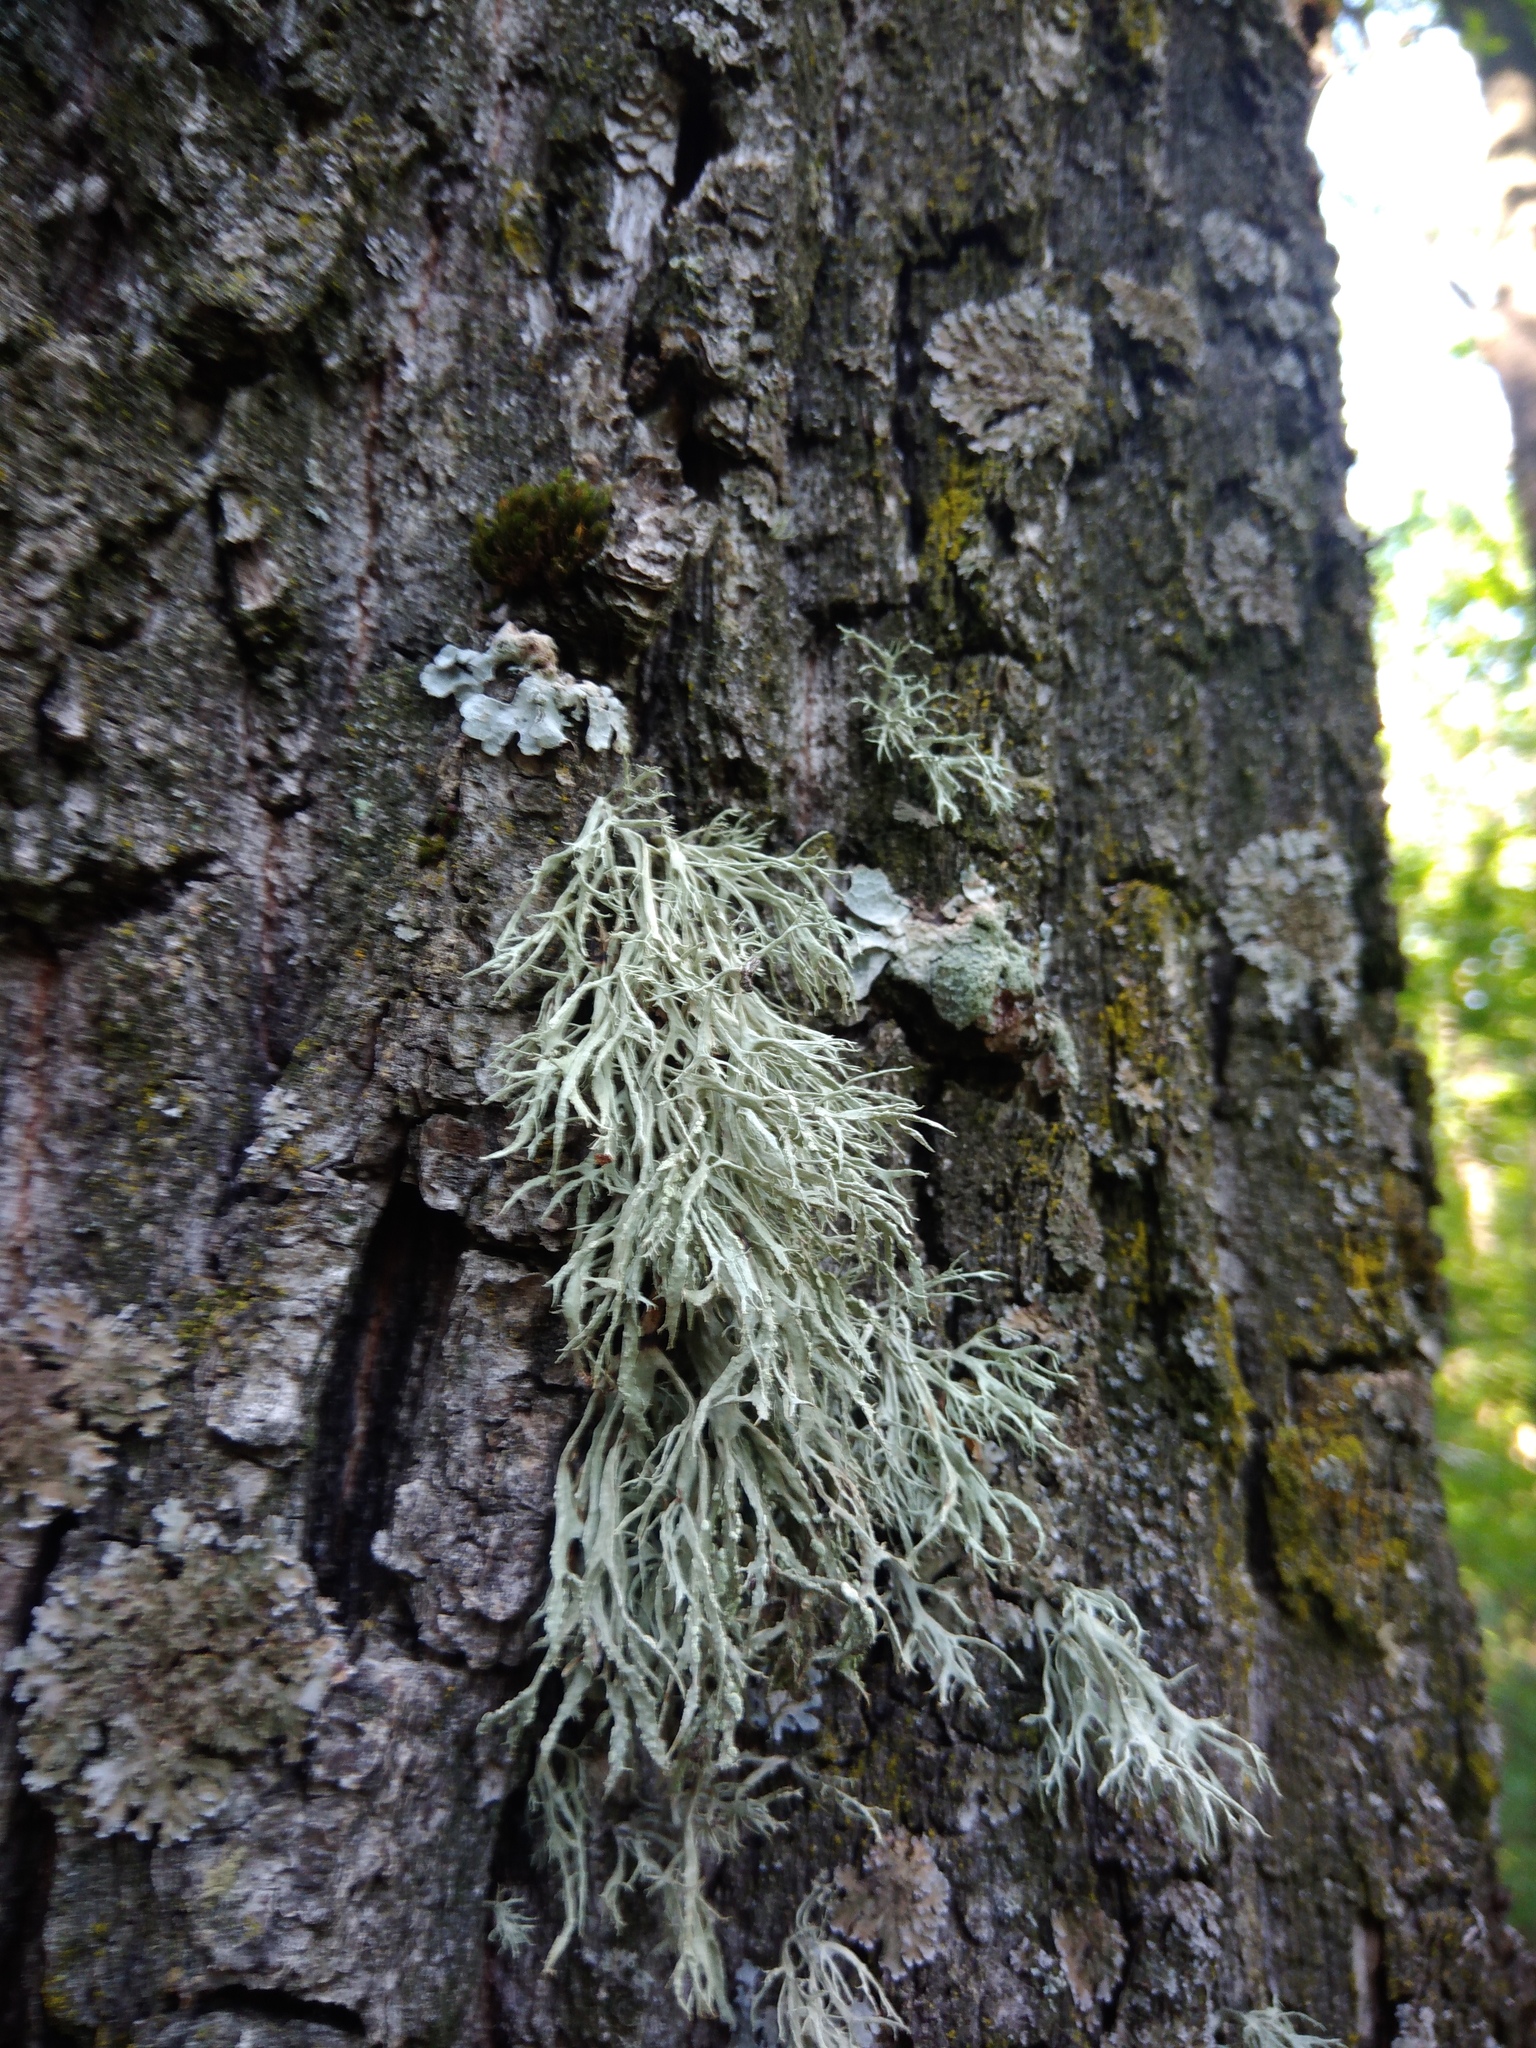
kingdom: Fungi
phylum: Ascomycota
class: Lecanoromycetes
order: Lecanorales
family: Ramalinaceae
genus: Ramalina
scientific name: Ramalina farinacea
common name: Farinose cartilage lichen
